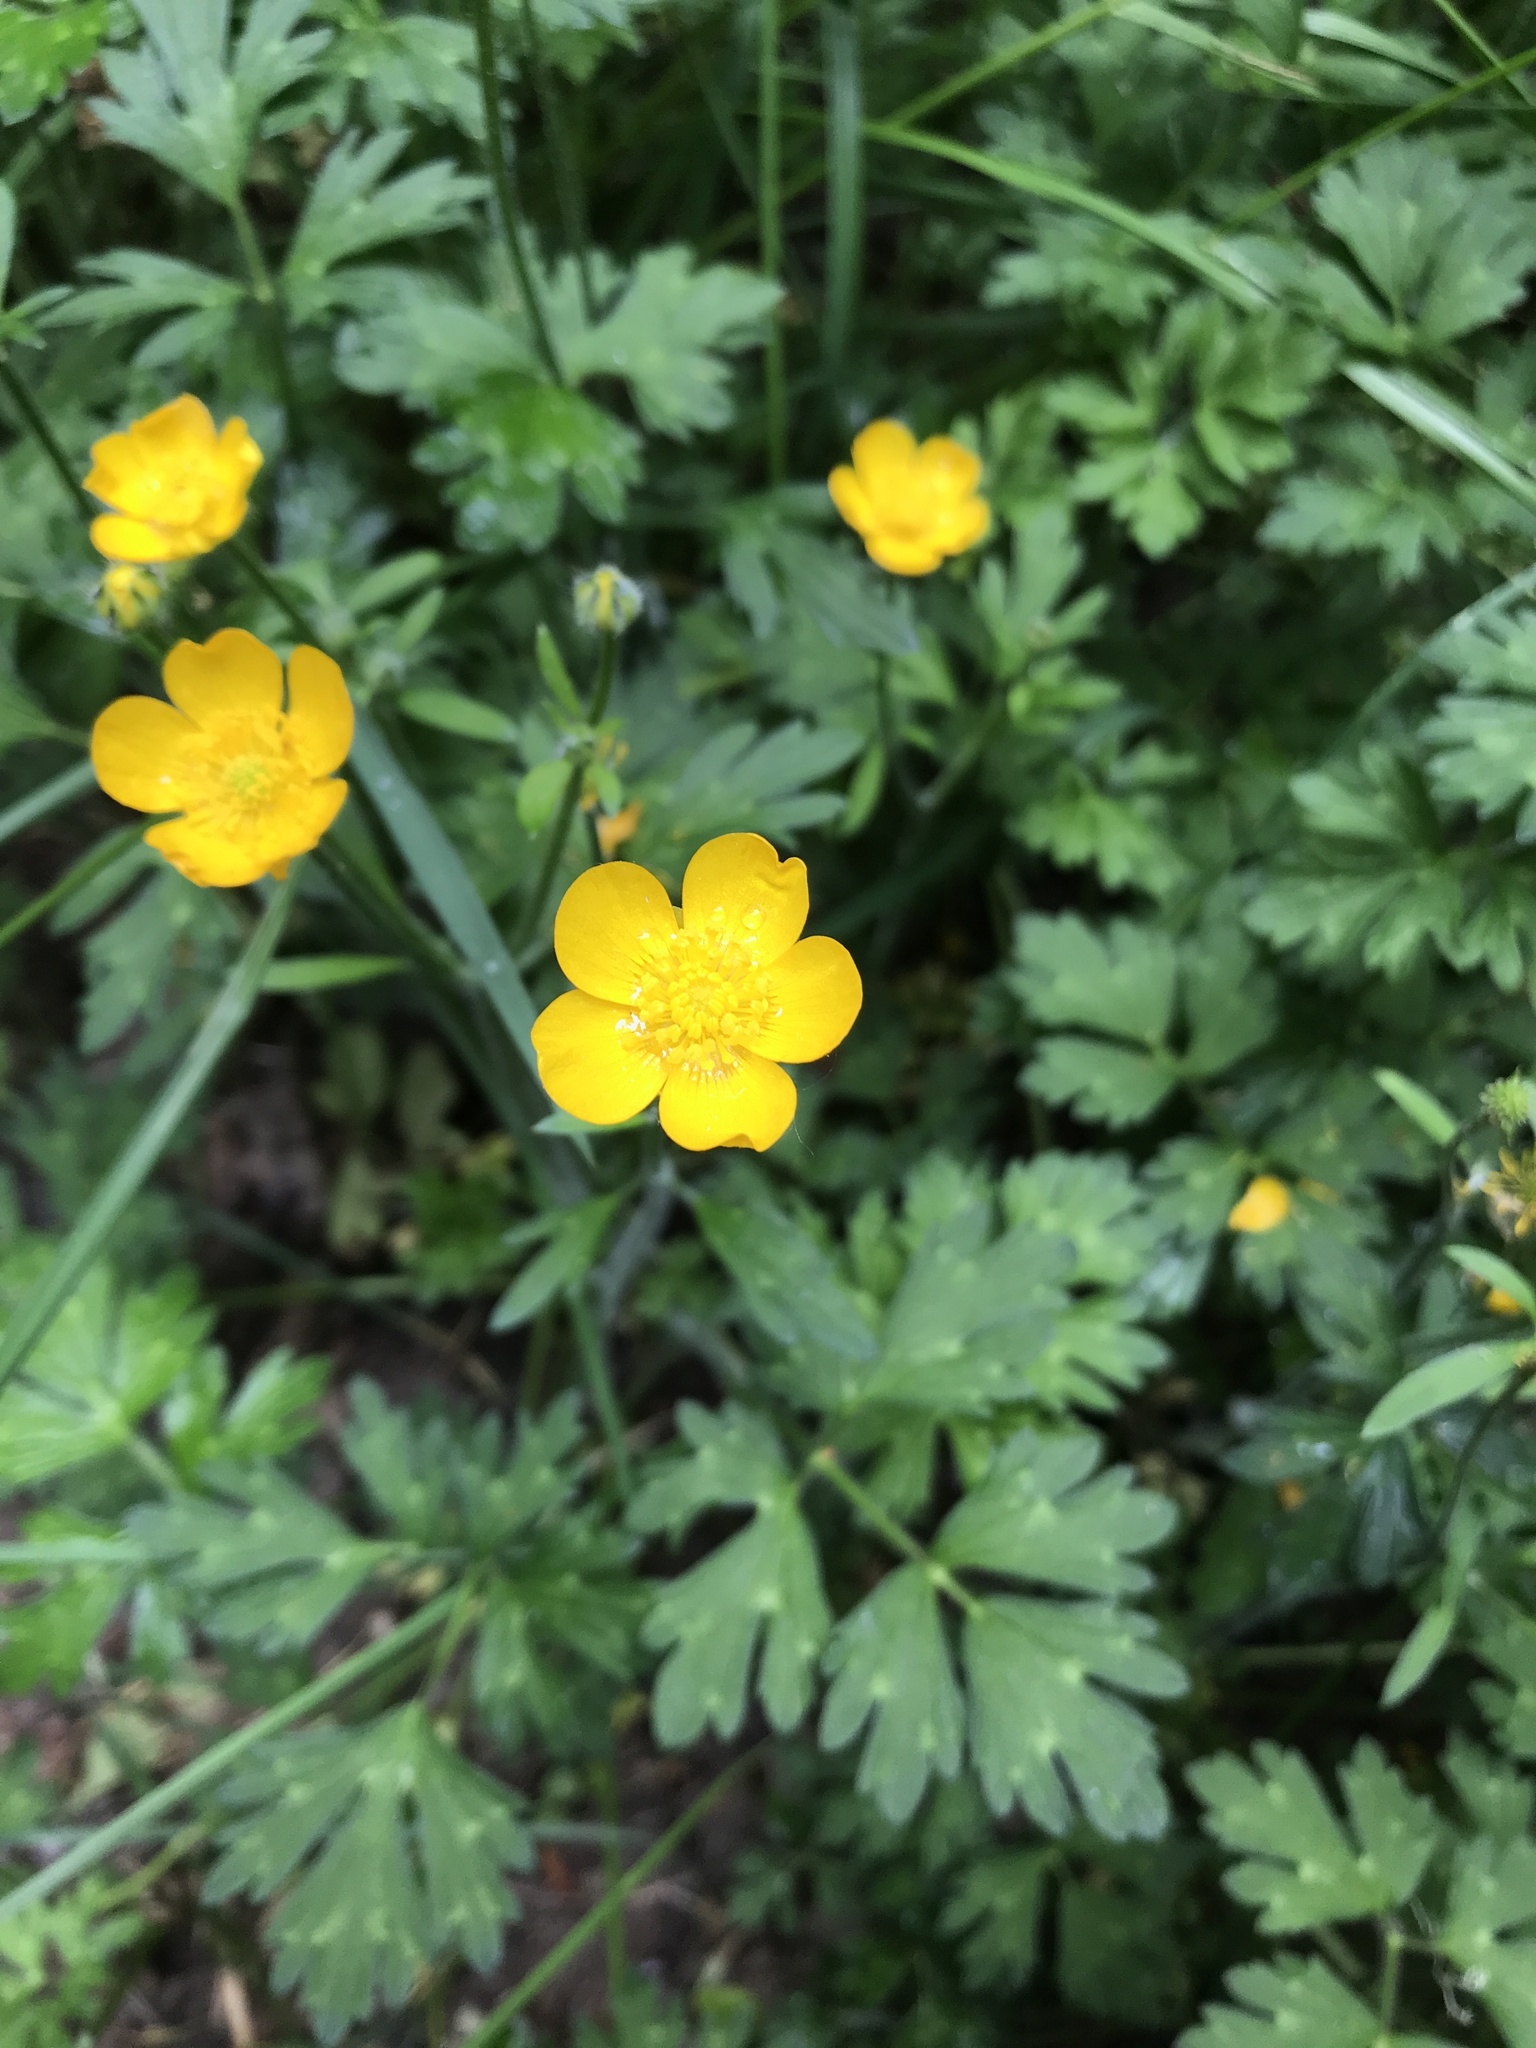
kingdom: Plantae
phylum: Tracheophyta
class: Magnoliopsida
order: Ranunculales
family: Ranunculaceae
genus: Ranunculus
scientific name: Ranunculus repens
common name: Creeping buttercup
